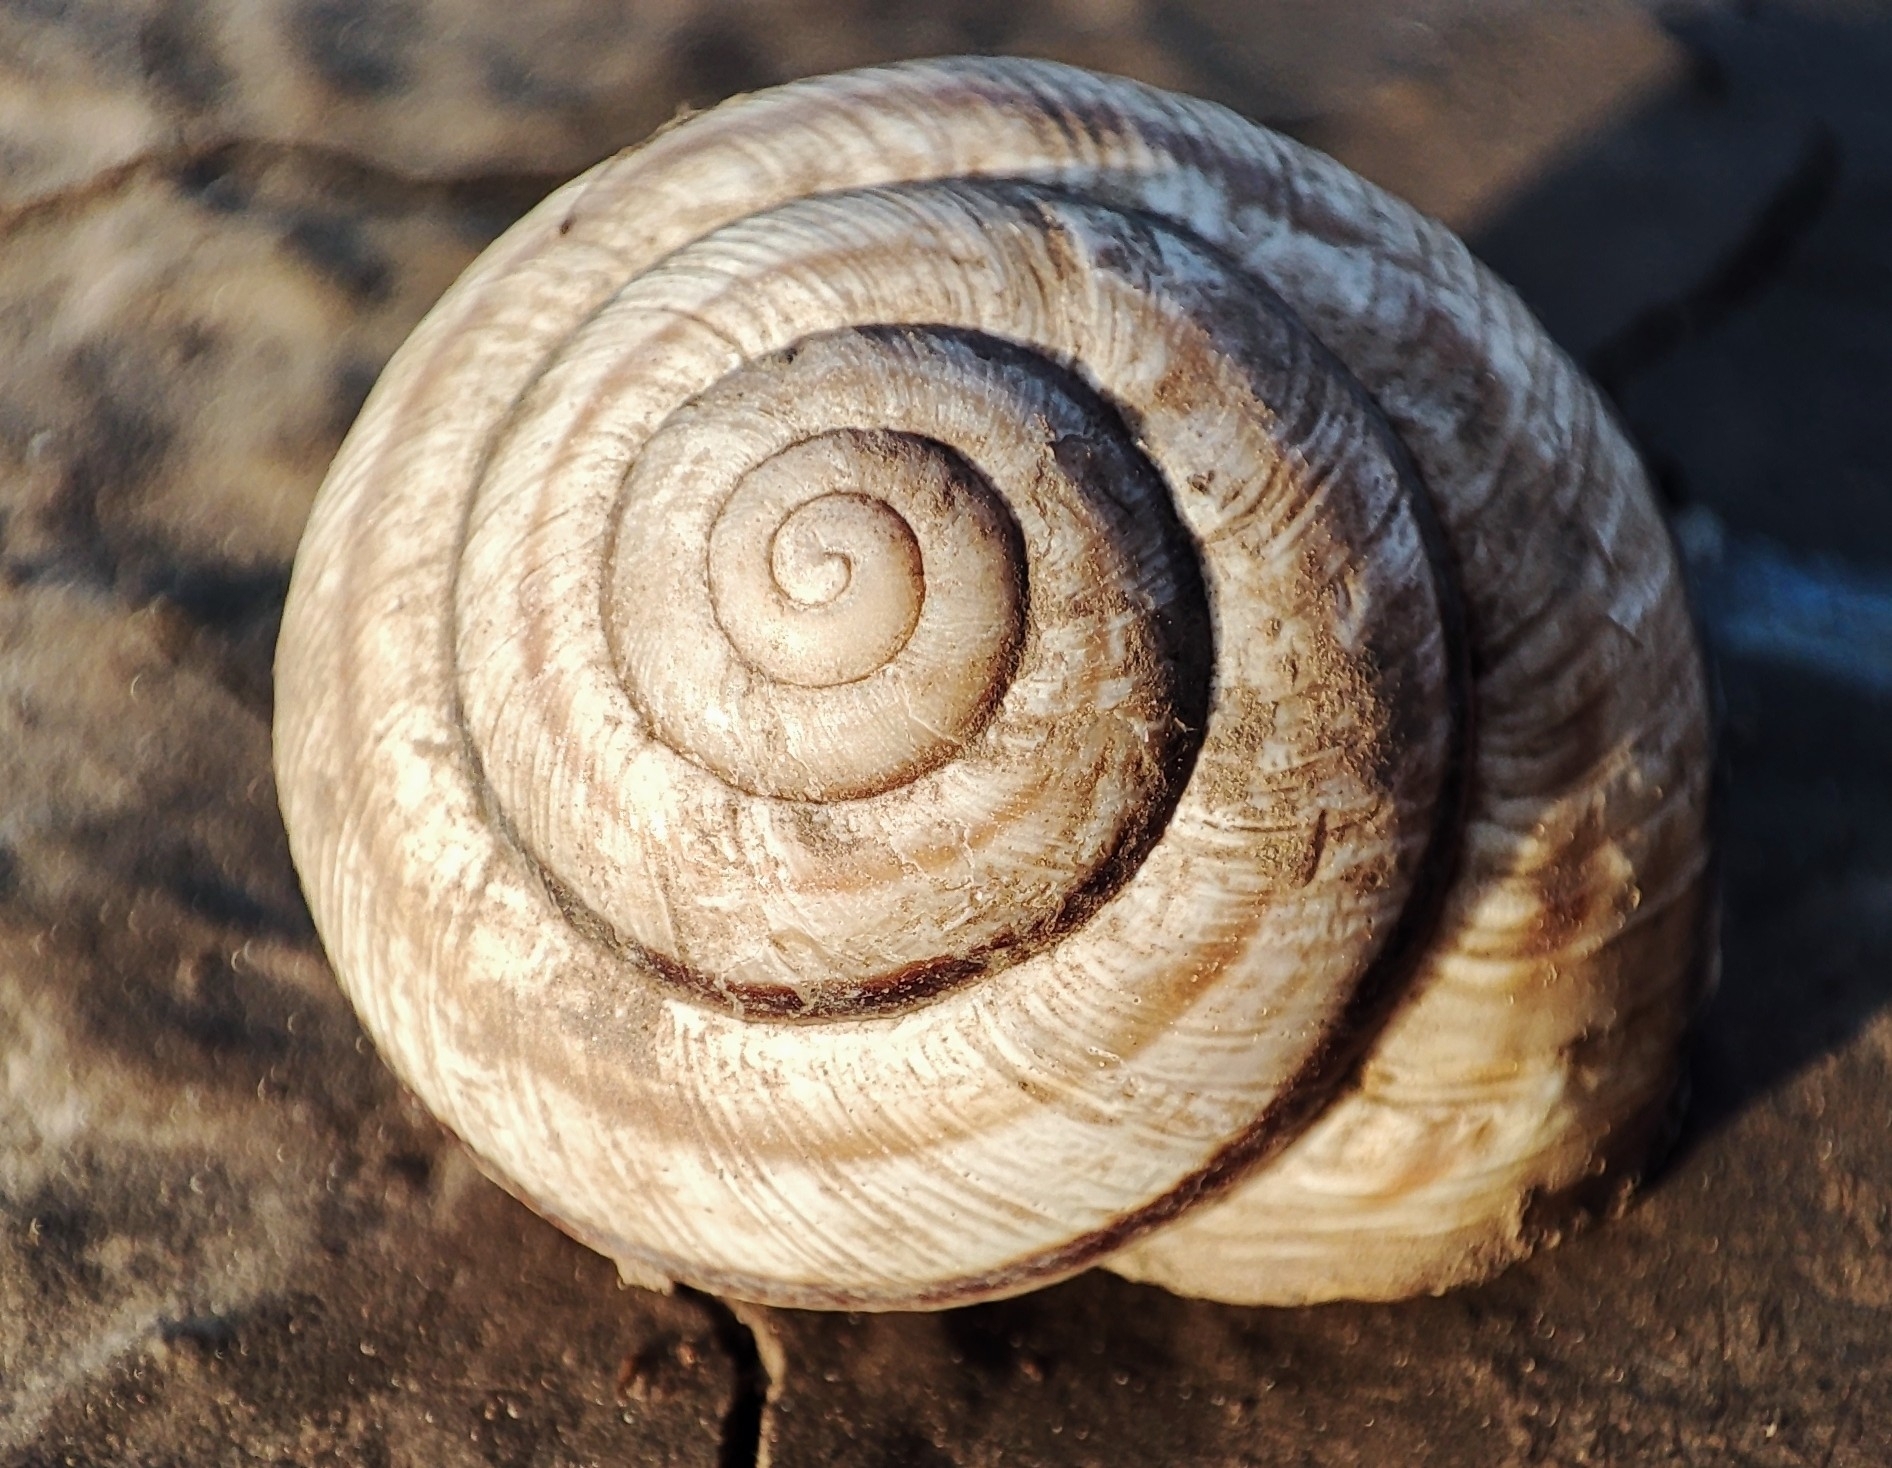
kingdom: Animalia
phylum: Mollusca
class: Gastropoda
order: Stylommatophora
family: Helicidae
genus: Caucasotachea
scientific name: Caucasotachea vindobonensis
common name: European helicid land snail
